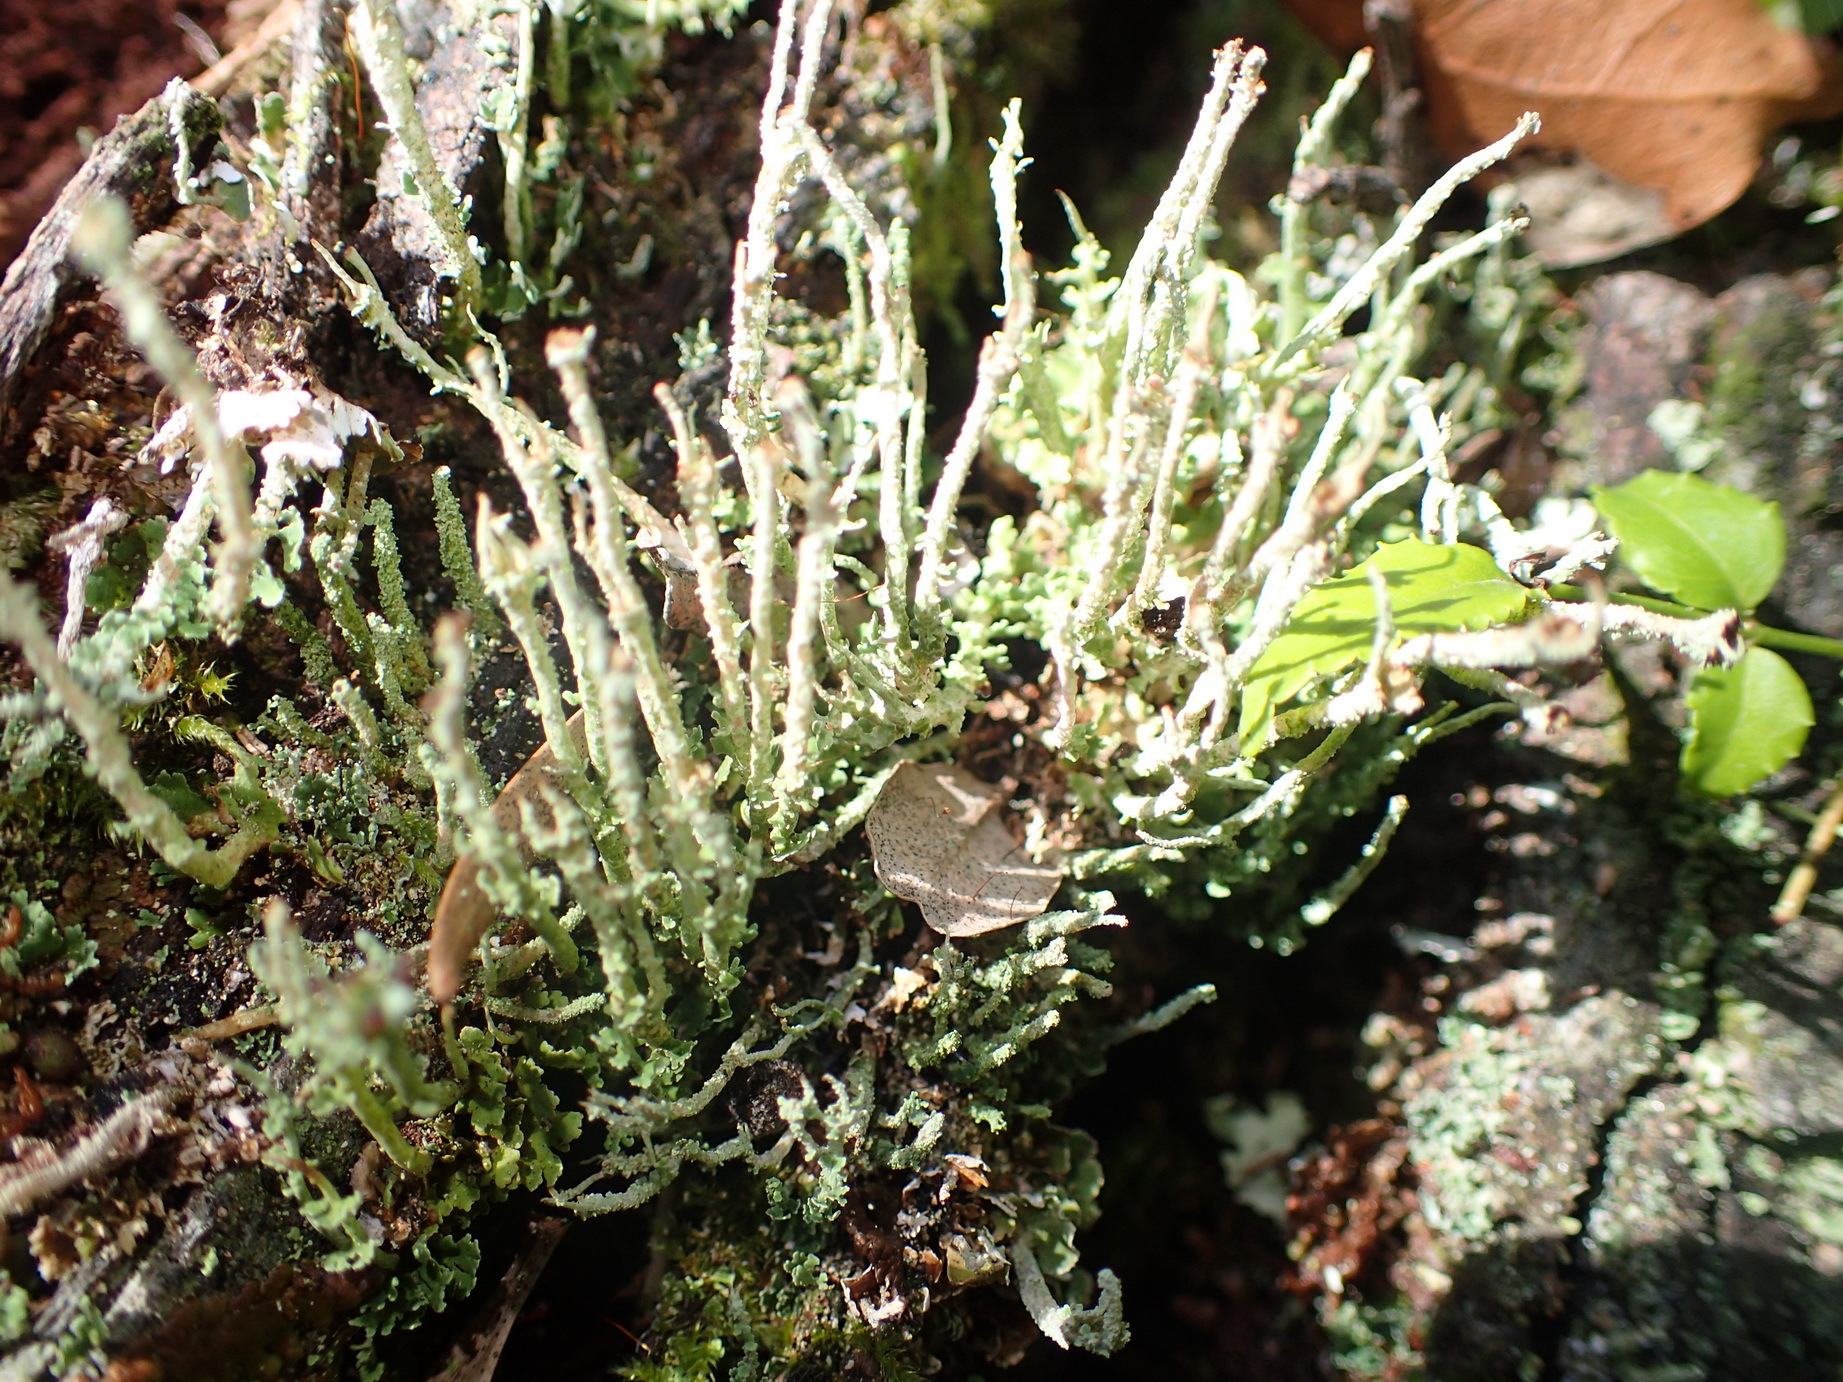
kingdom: Fungi
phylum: Ascomycota
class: Lecanoromycetes
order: Lecanorales
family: Cladoniaceae
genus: Cladonia
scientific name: Cladonia ochrochlora
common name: Smooth-footed powderhorn
